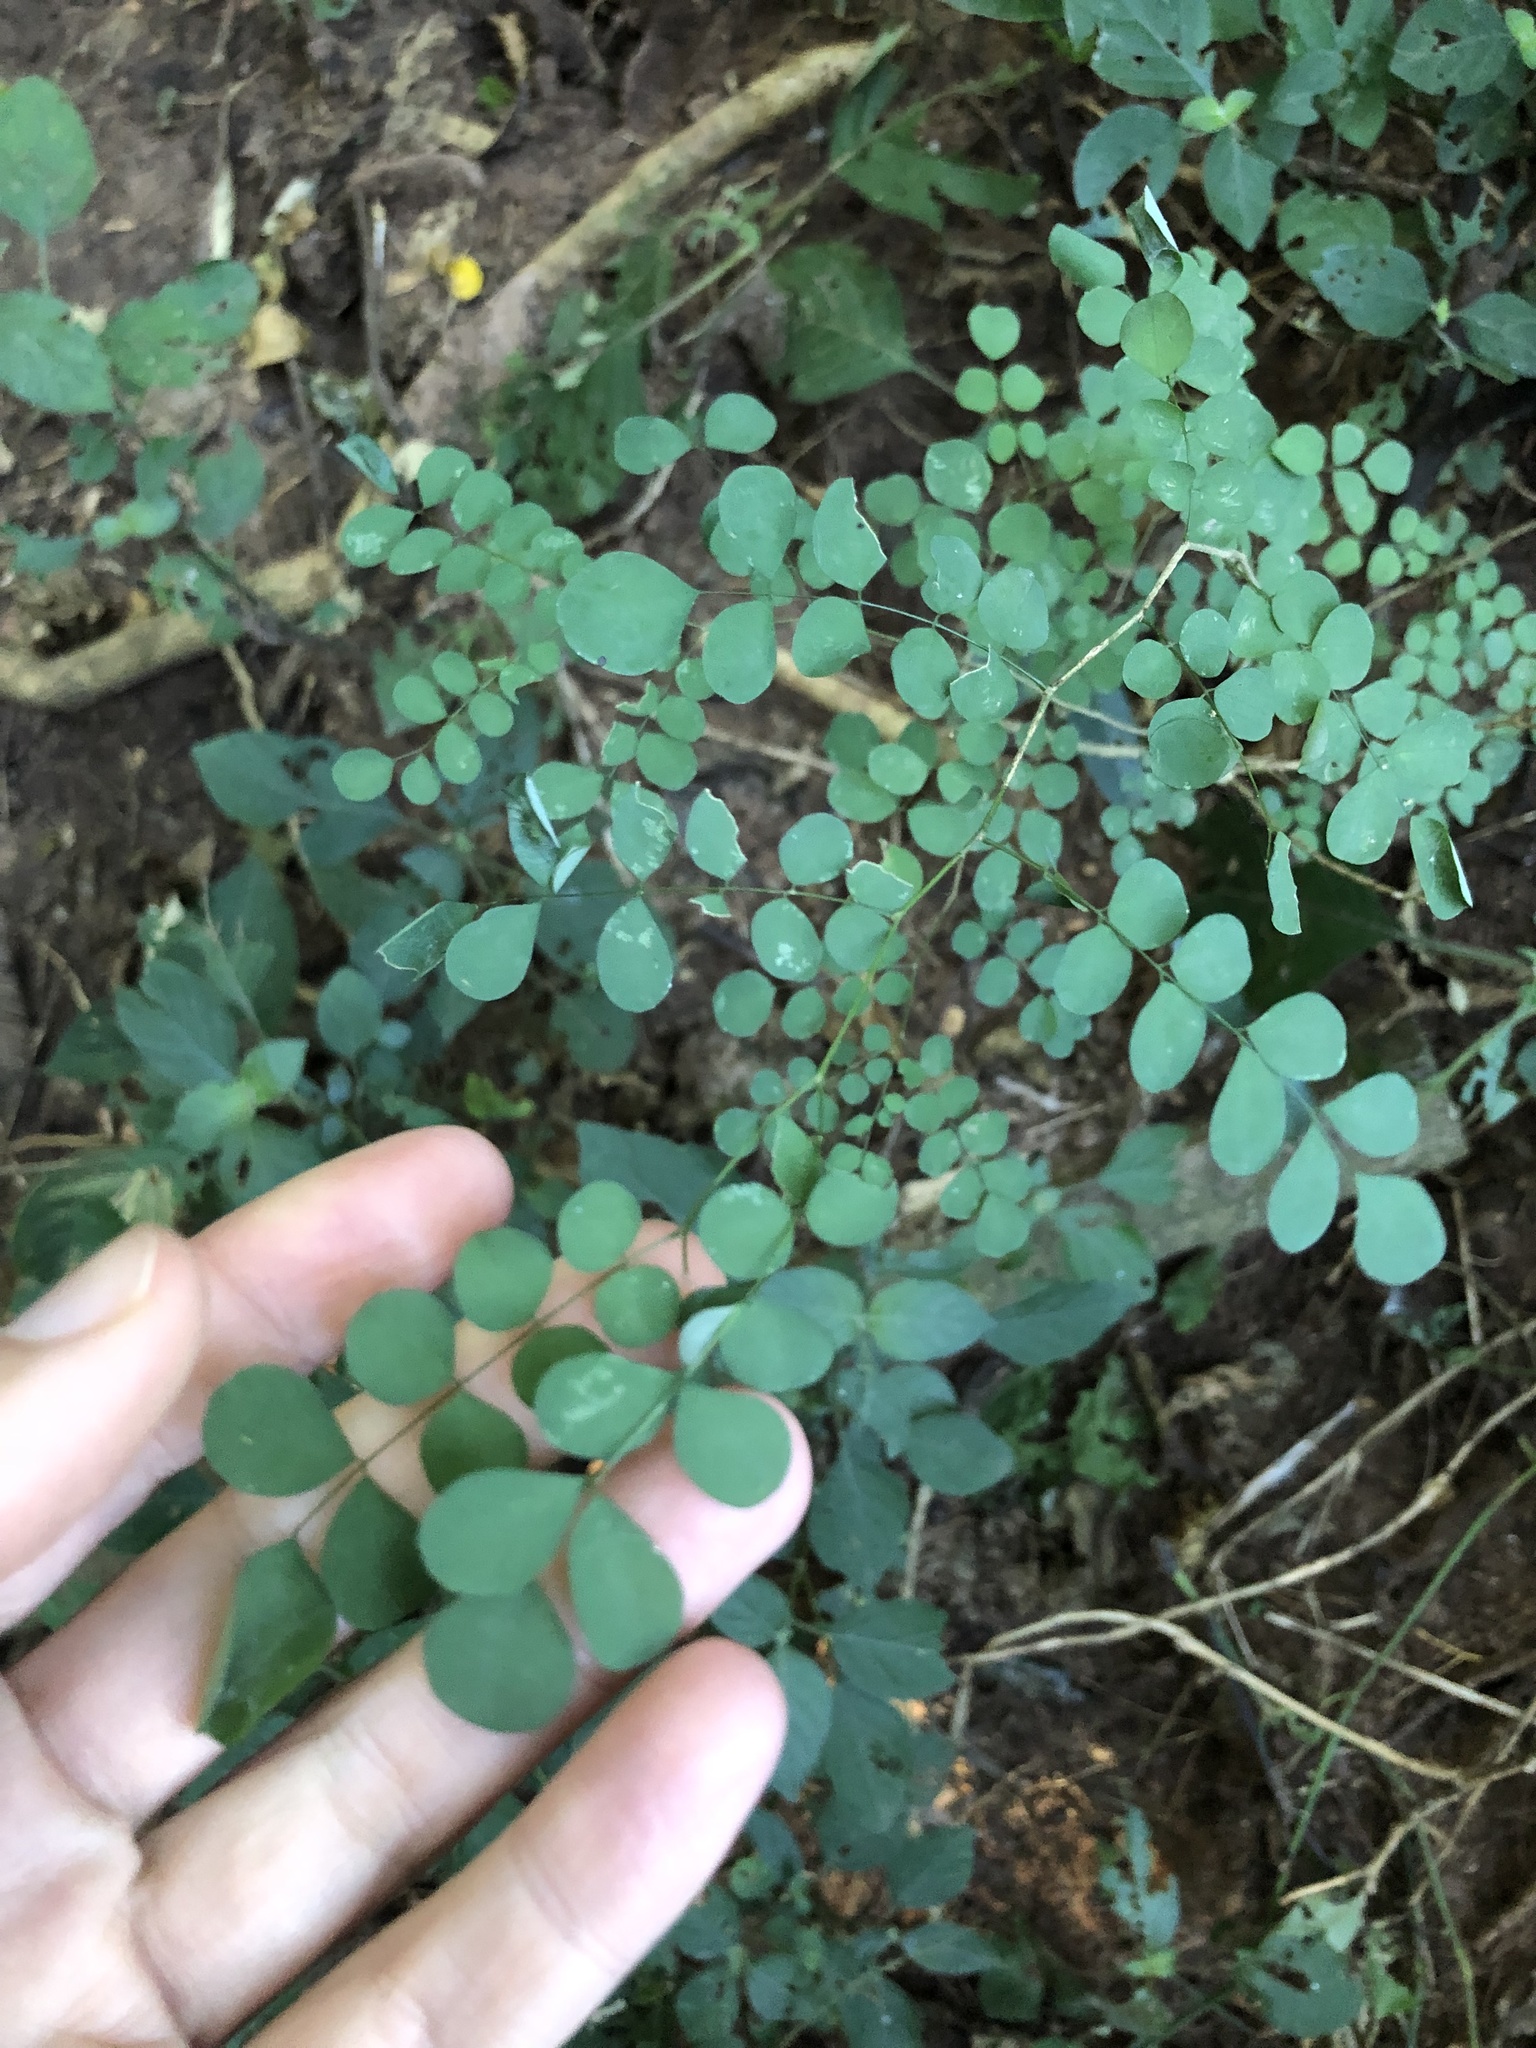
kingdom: Plantae
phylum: Tracheophyta
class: Magnoliopsida
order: Fabales
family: Fabaceae
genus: Indigofera
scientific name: Indigofera
